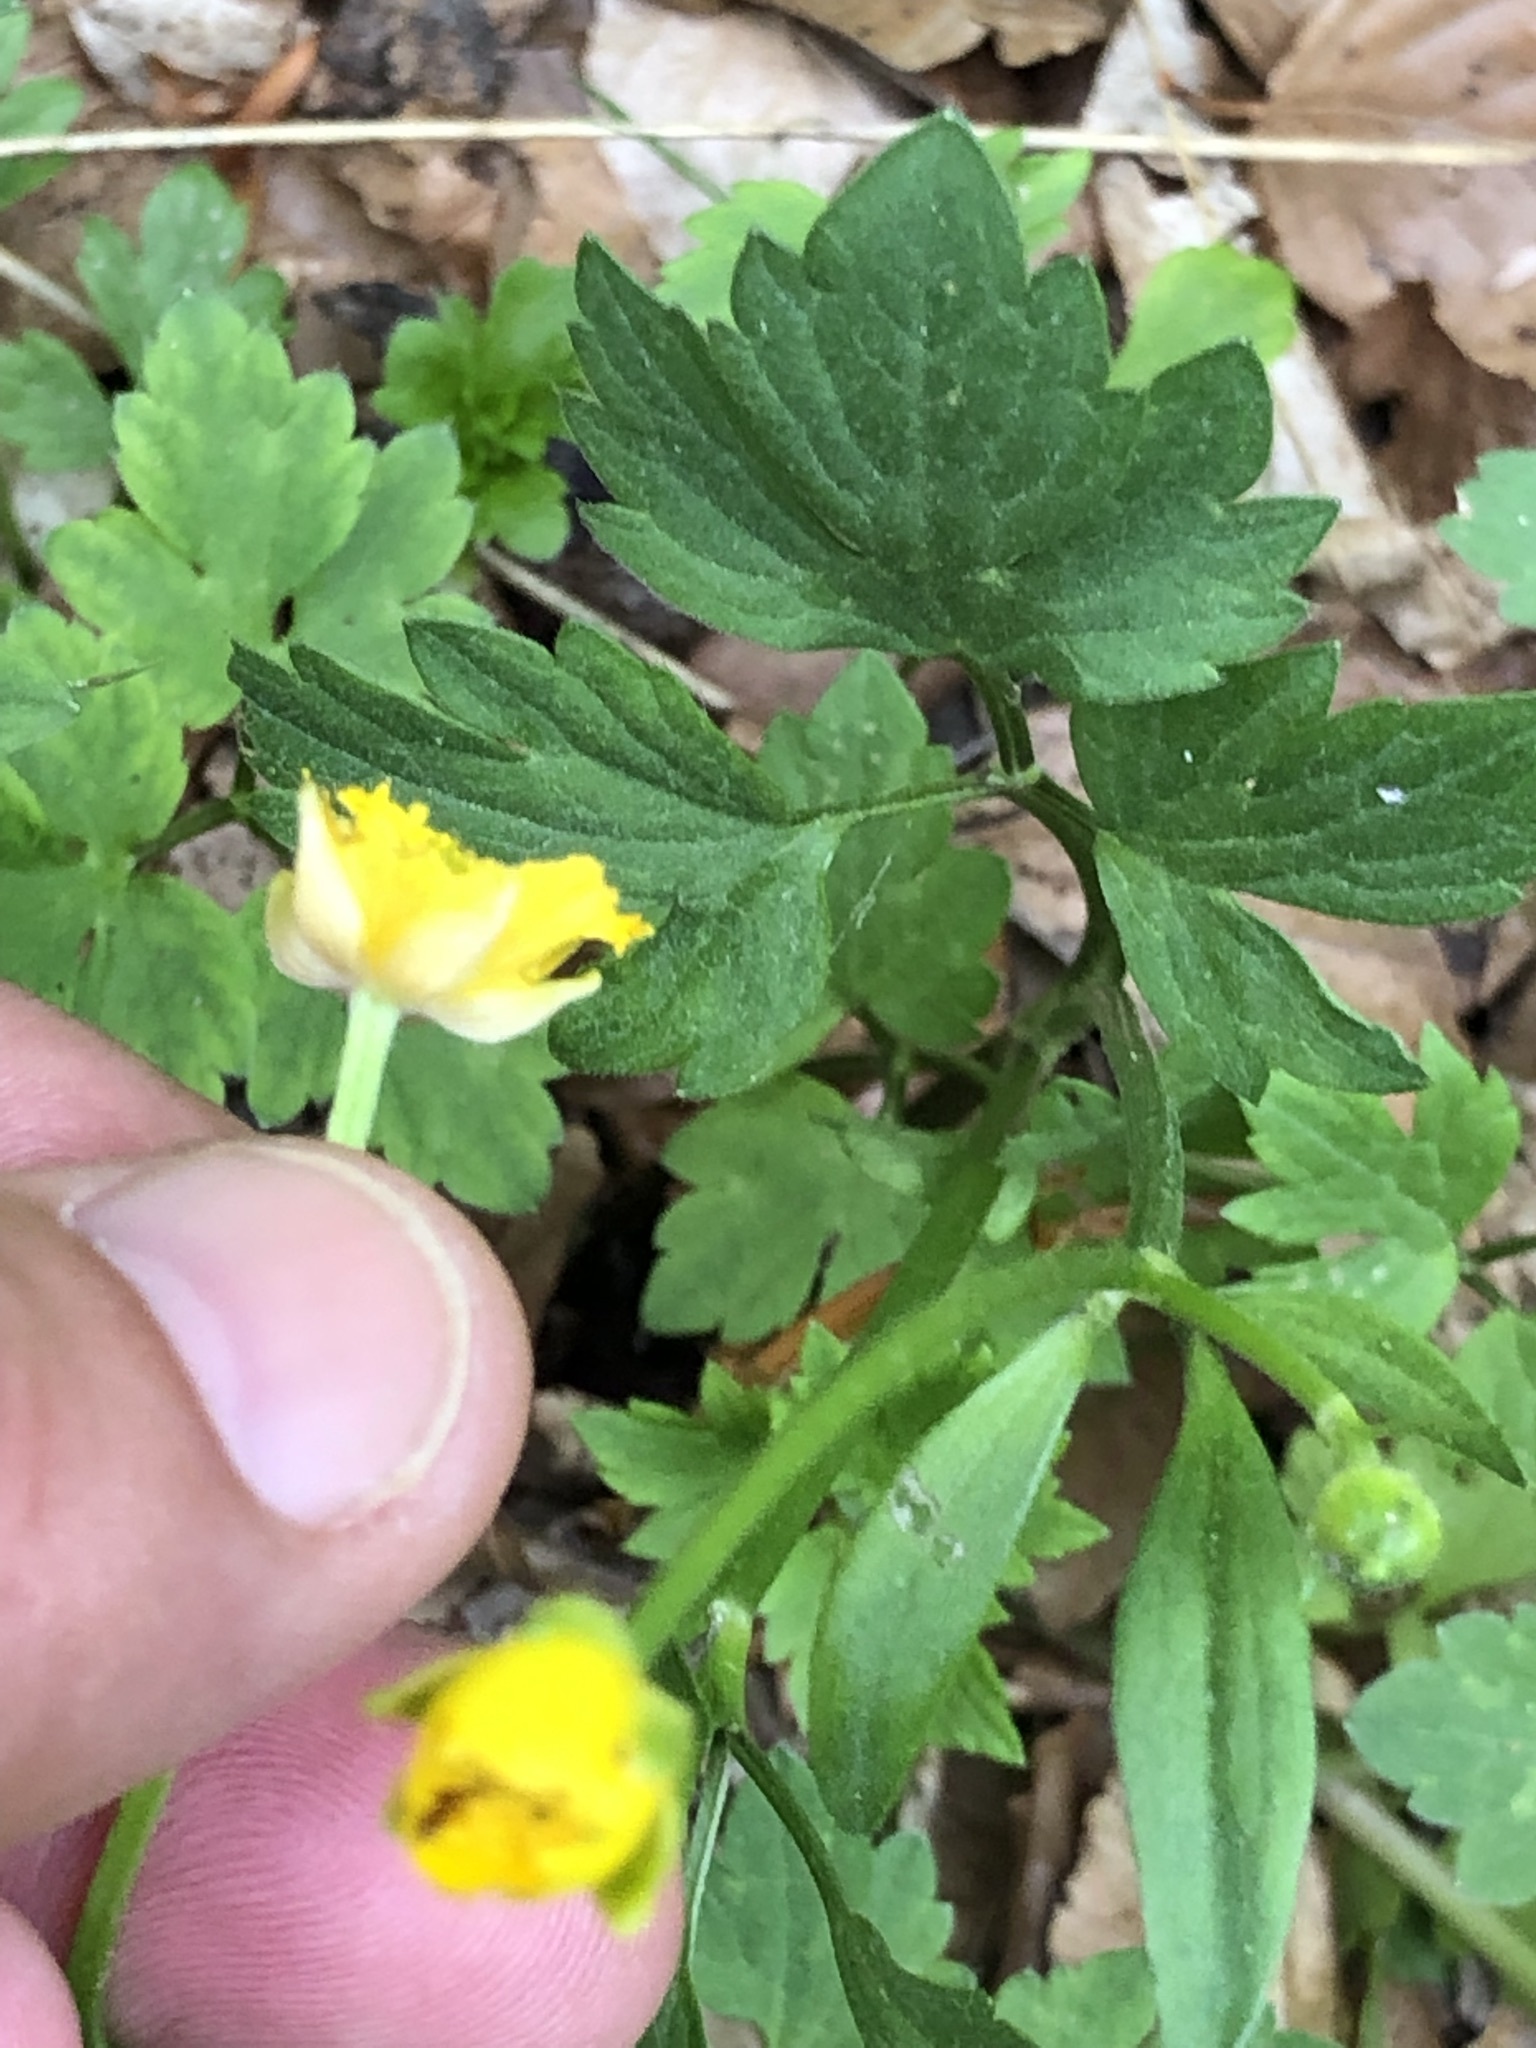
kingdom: Plantae
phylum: Tracheophyta
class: Magnoliopsida
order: Ranunculales
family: Ranunculaceae
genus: Ranunculus
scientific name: Ranunculus repens
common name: Creeping buttercup
